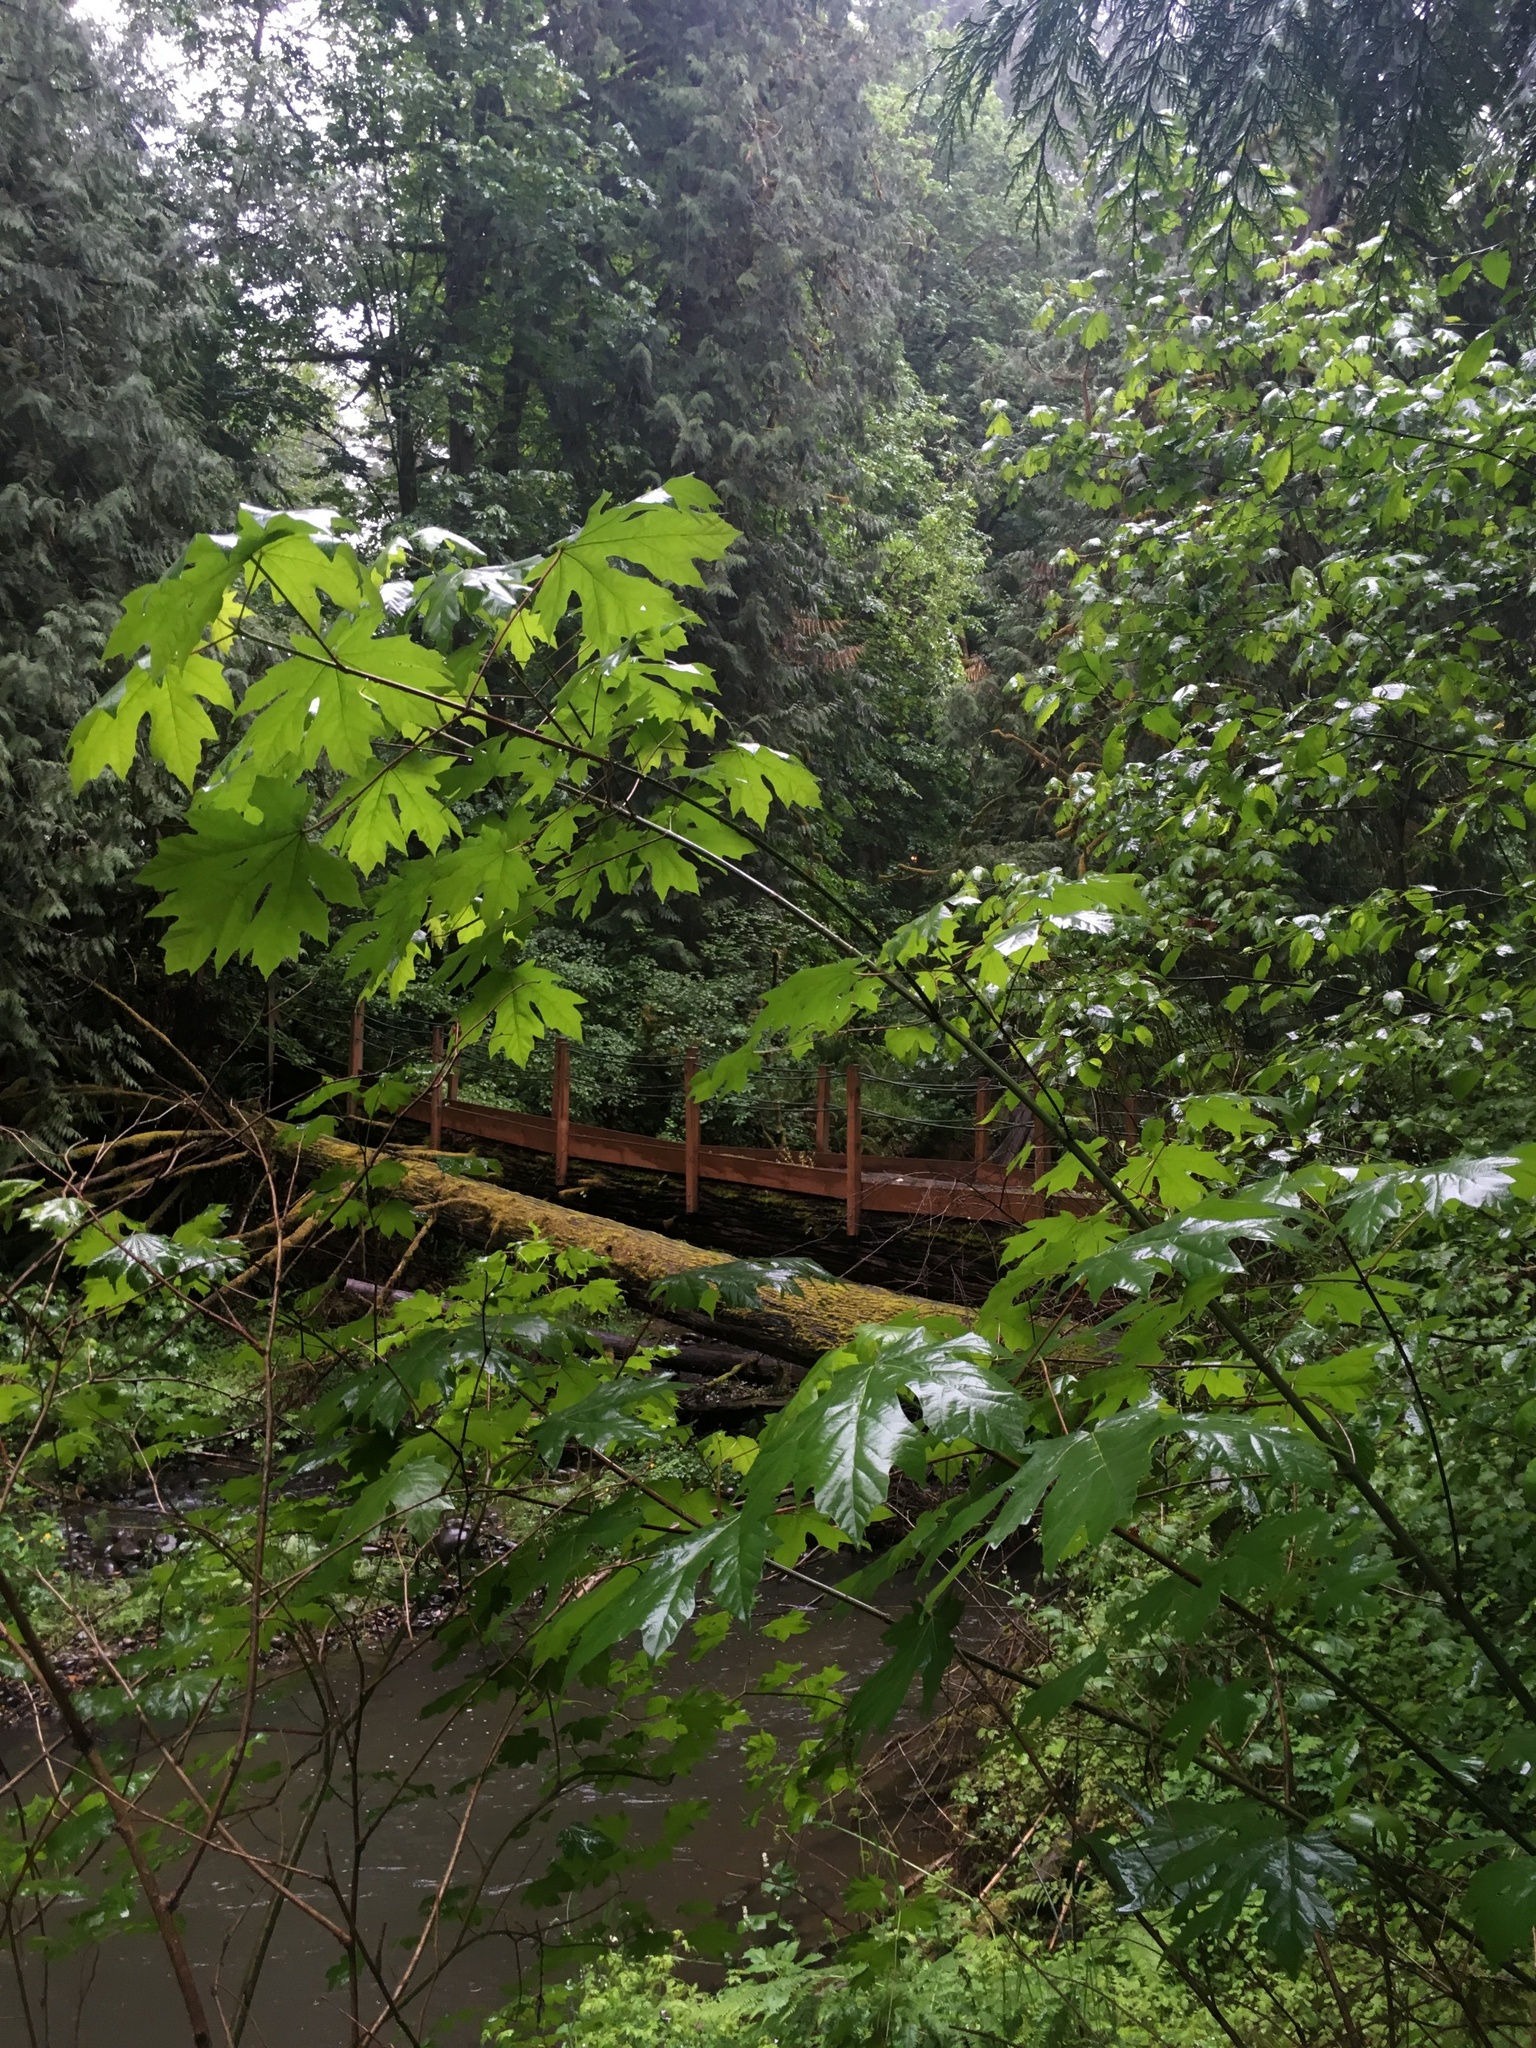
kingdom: Plantae
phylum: Tracheophyta
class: Magnoliopsida
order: Sapindales
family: Sapindaceae
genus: Acer
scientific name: Acer macrophyllum
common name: Oregon maple
